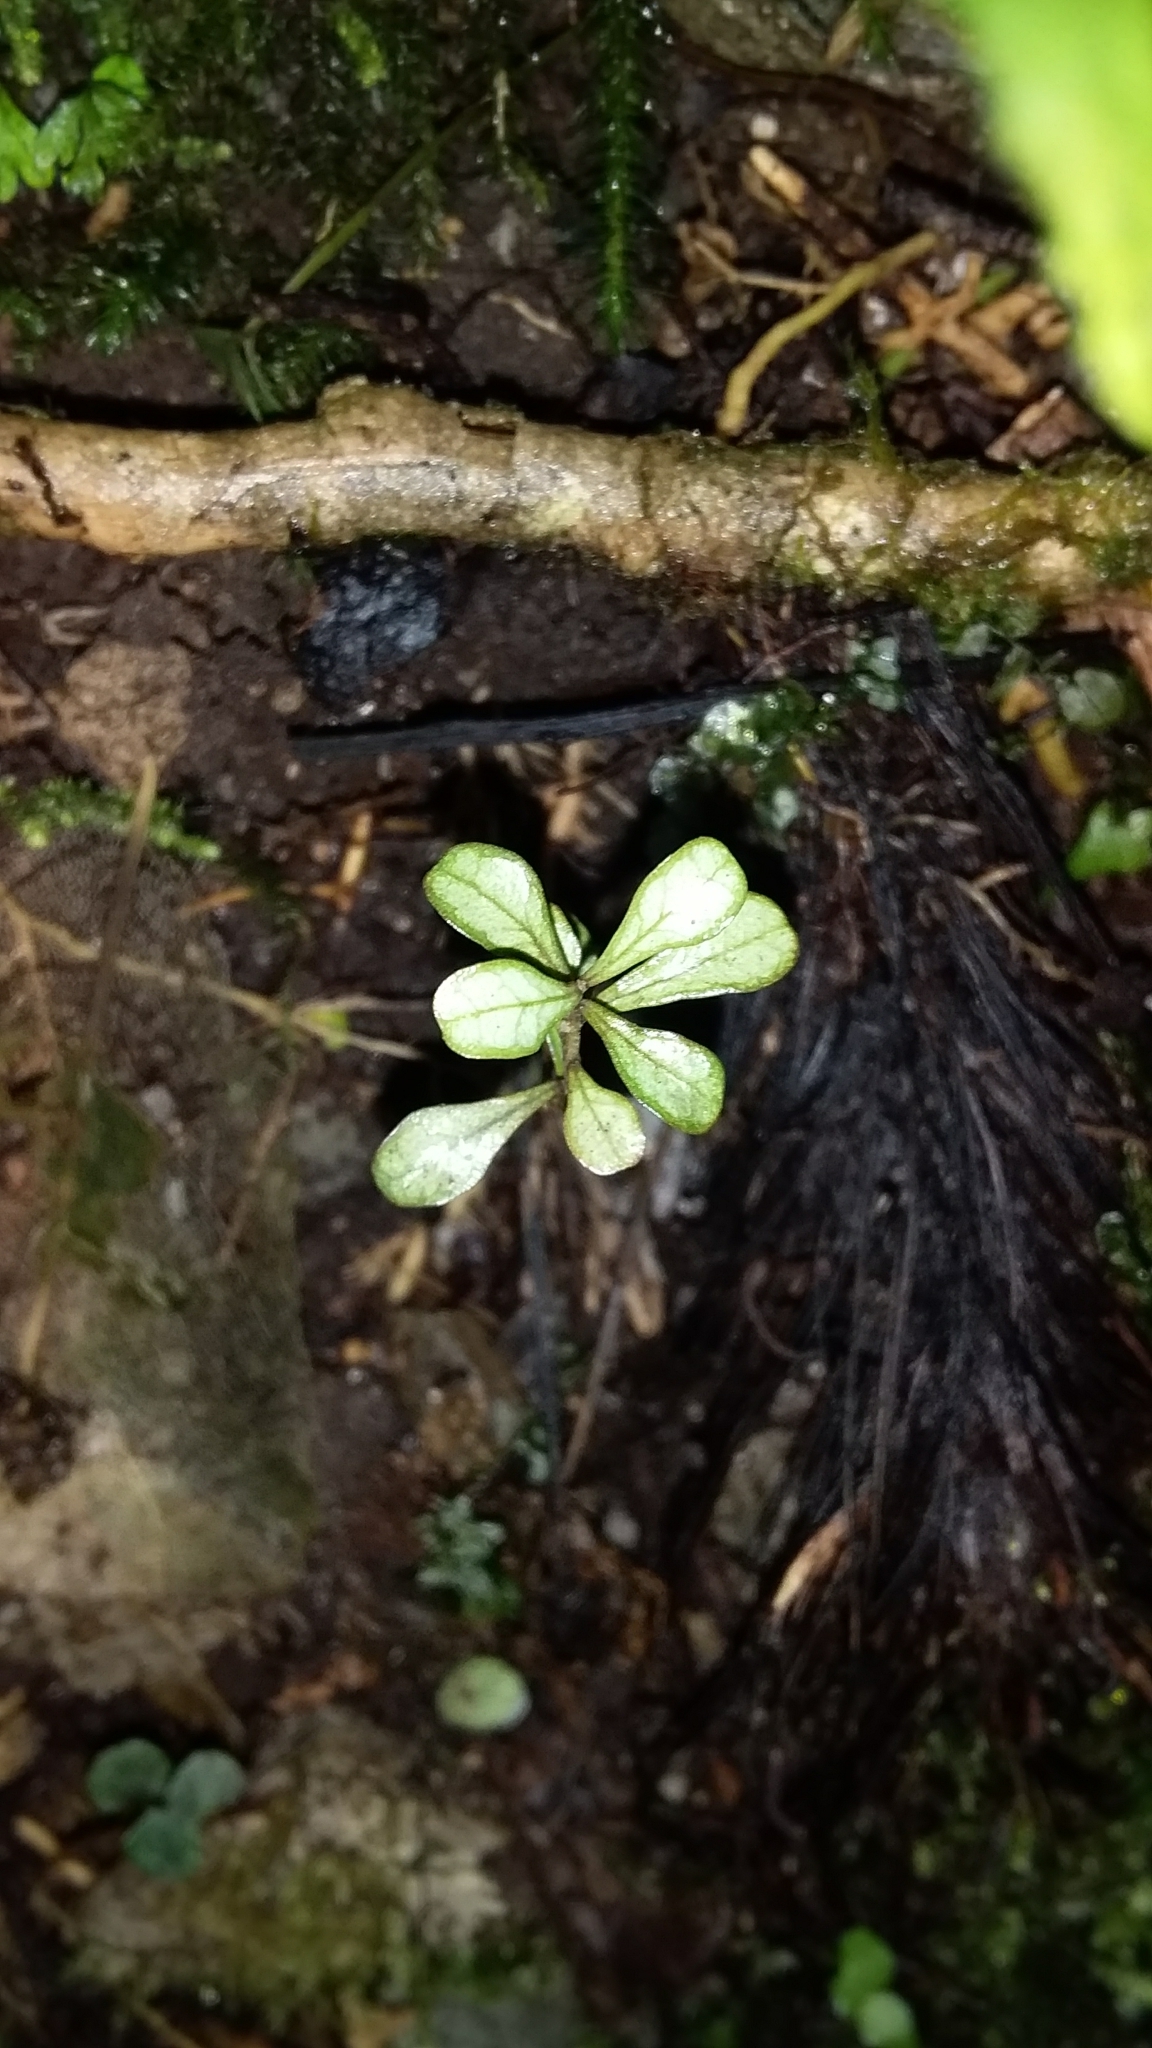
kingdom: Plantae
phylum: Tracheophyta
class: Magnoliopsida
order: Myrtales
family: Myrtaceae
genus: Lophomyrtus
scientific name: Lophomyrtus obcordata
